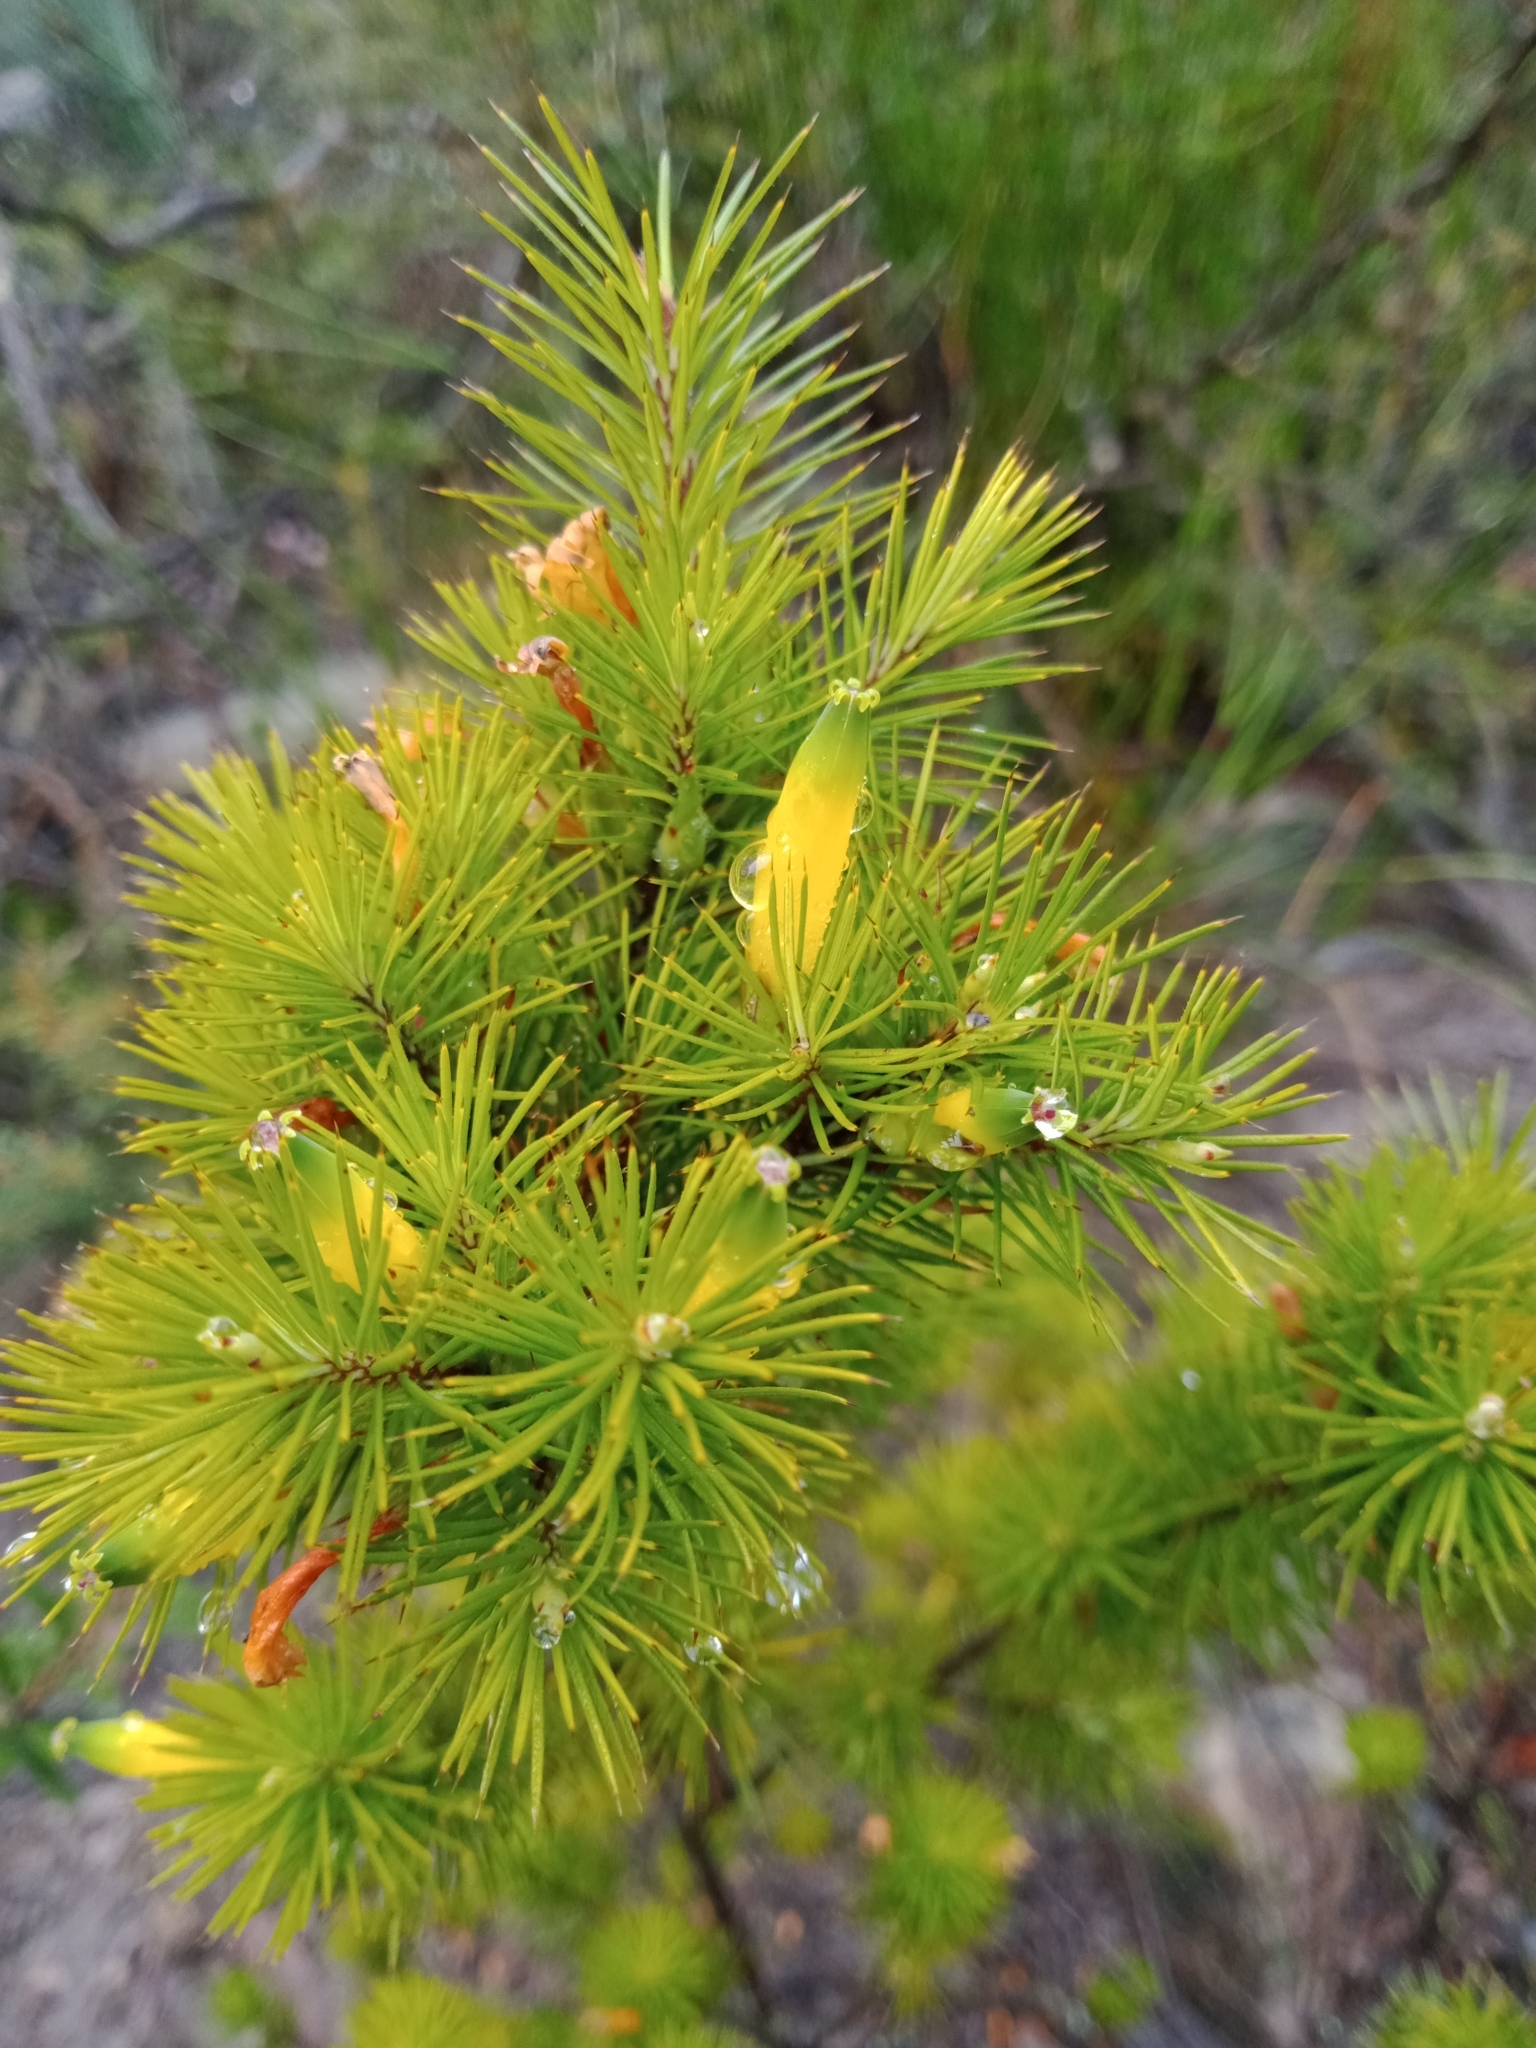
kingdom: Plantae
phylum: Tracheophyta
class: Magnoliopsida
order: Ericales
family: Ericaceae
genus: Stenanthera
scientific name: Stenanthera pinifolia
